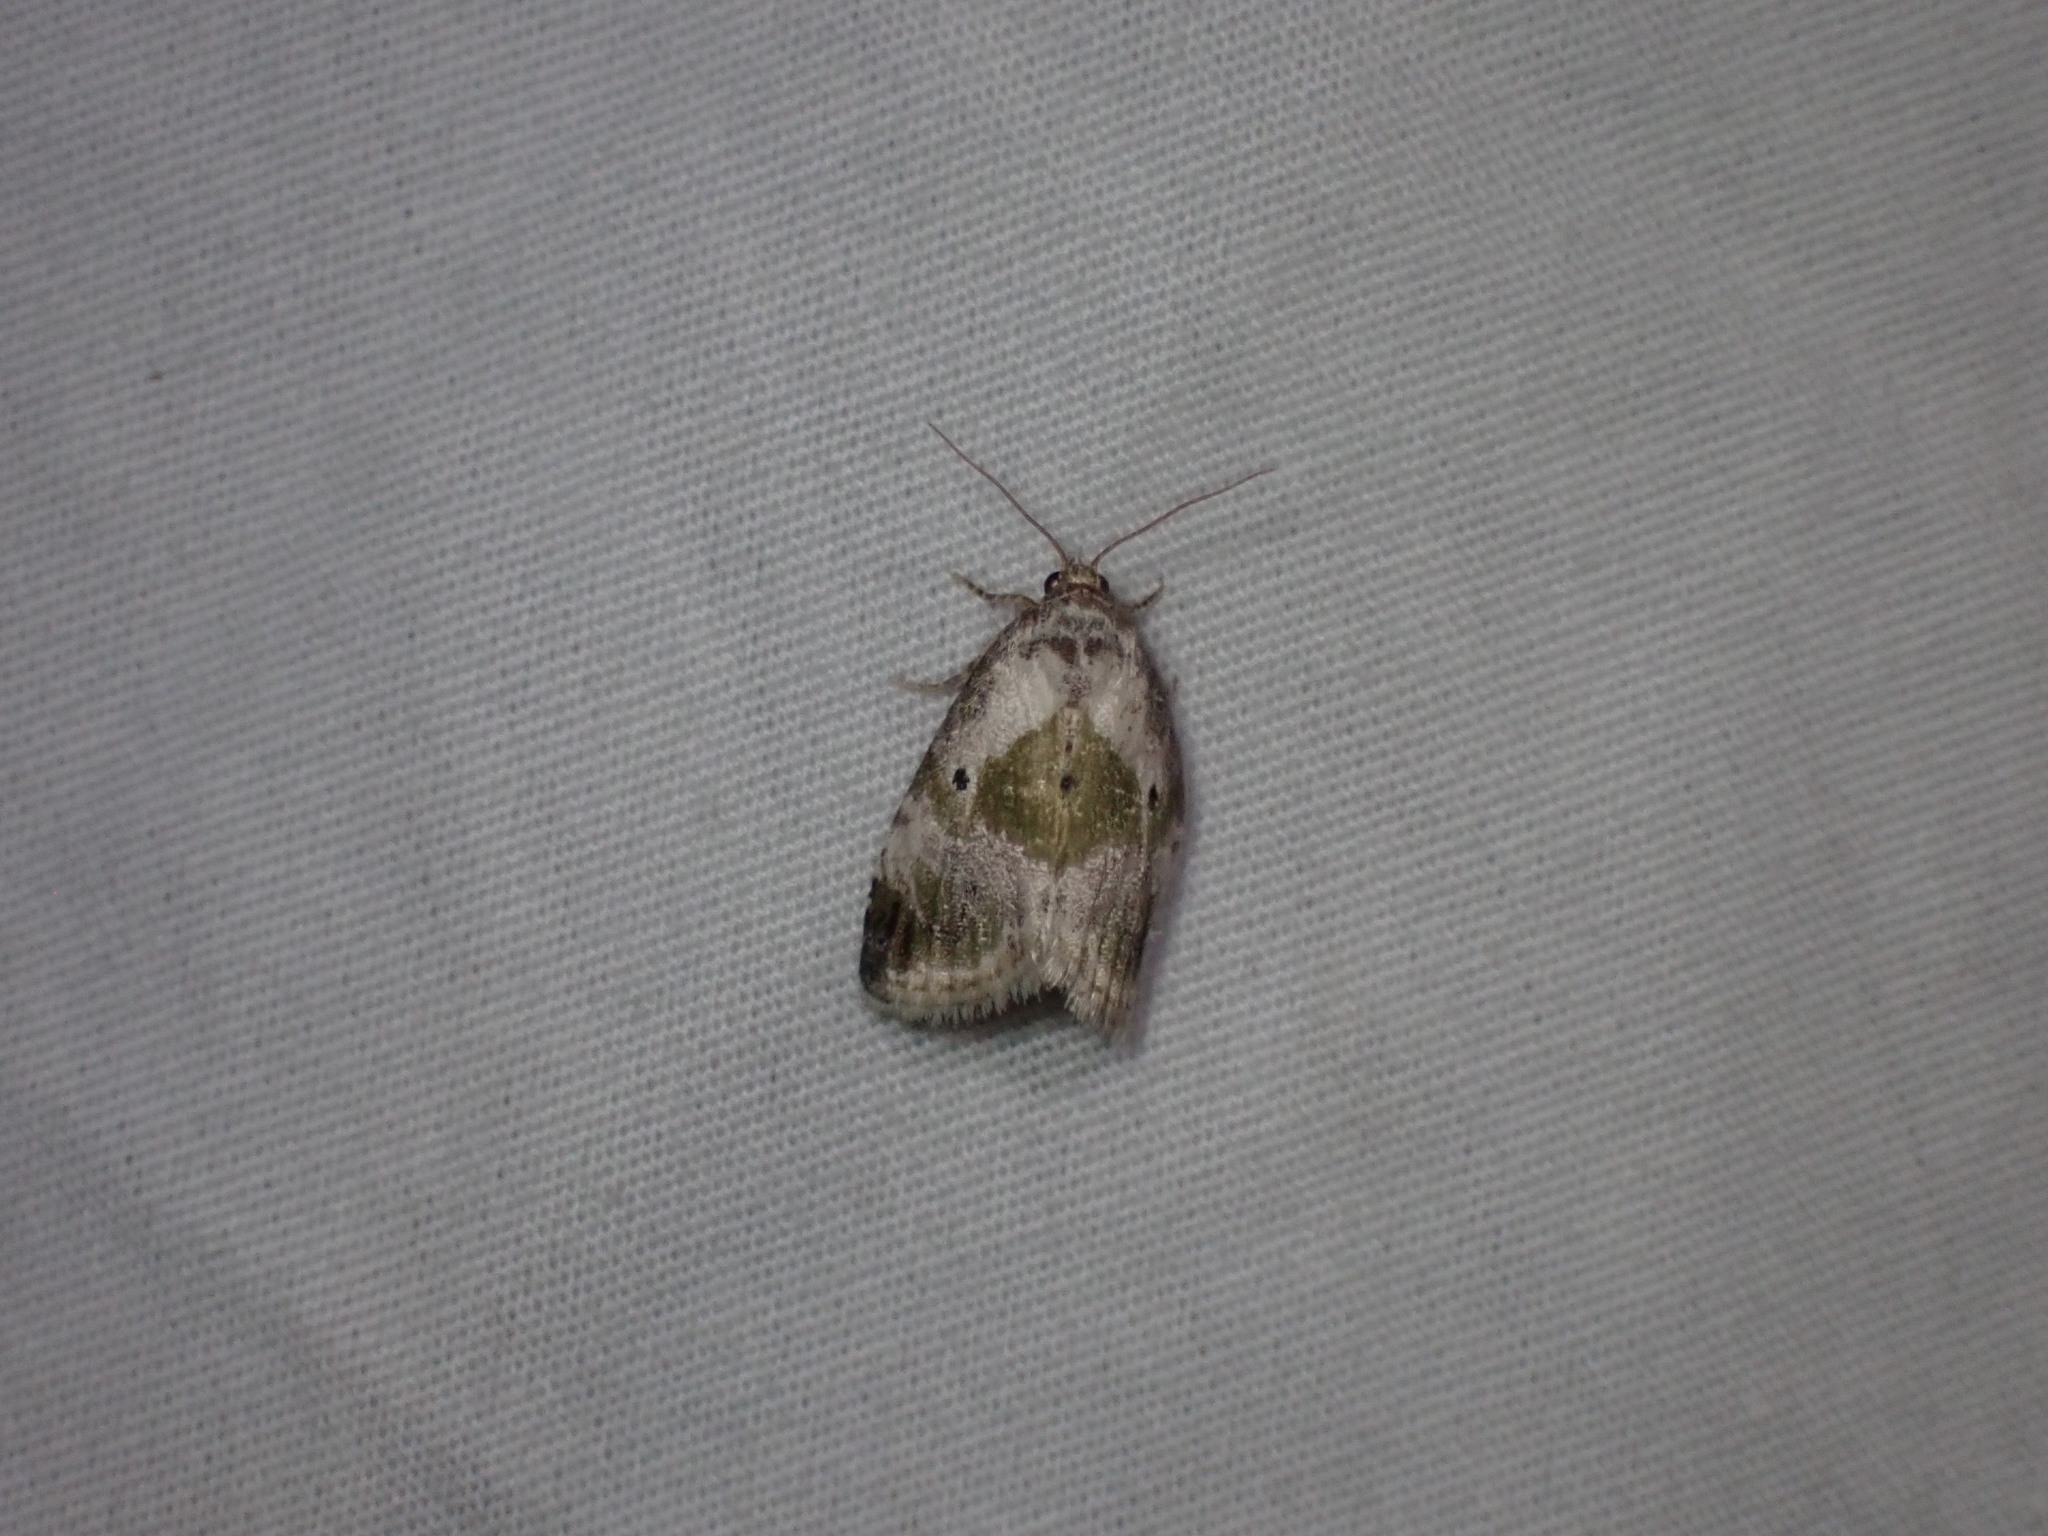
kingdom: Animalia
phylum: Arthropoda
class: Insecta
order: Lepidoptera
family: Noctuidae
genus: Maliattha
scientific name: Maliattha synochitis
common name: Black-dotted glyph
